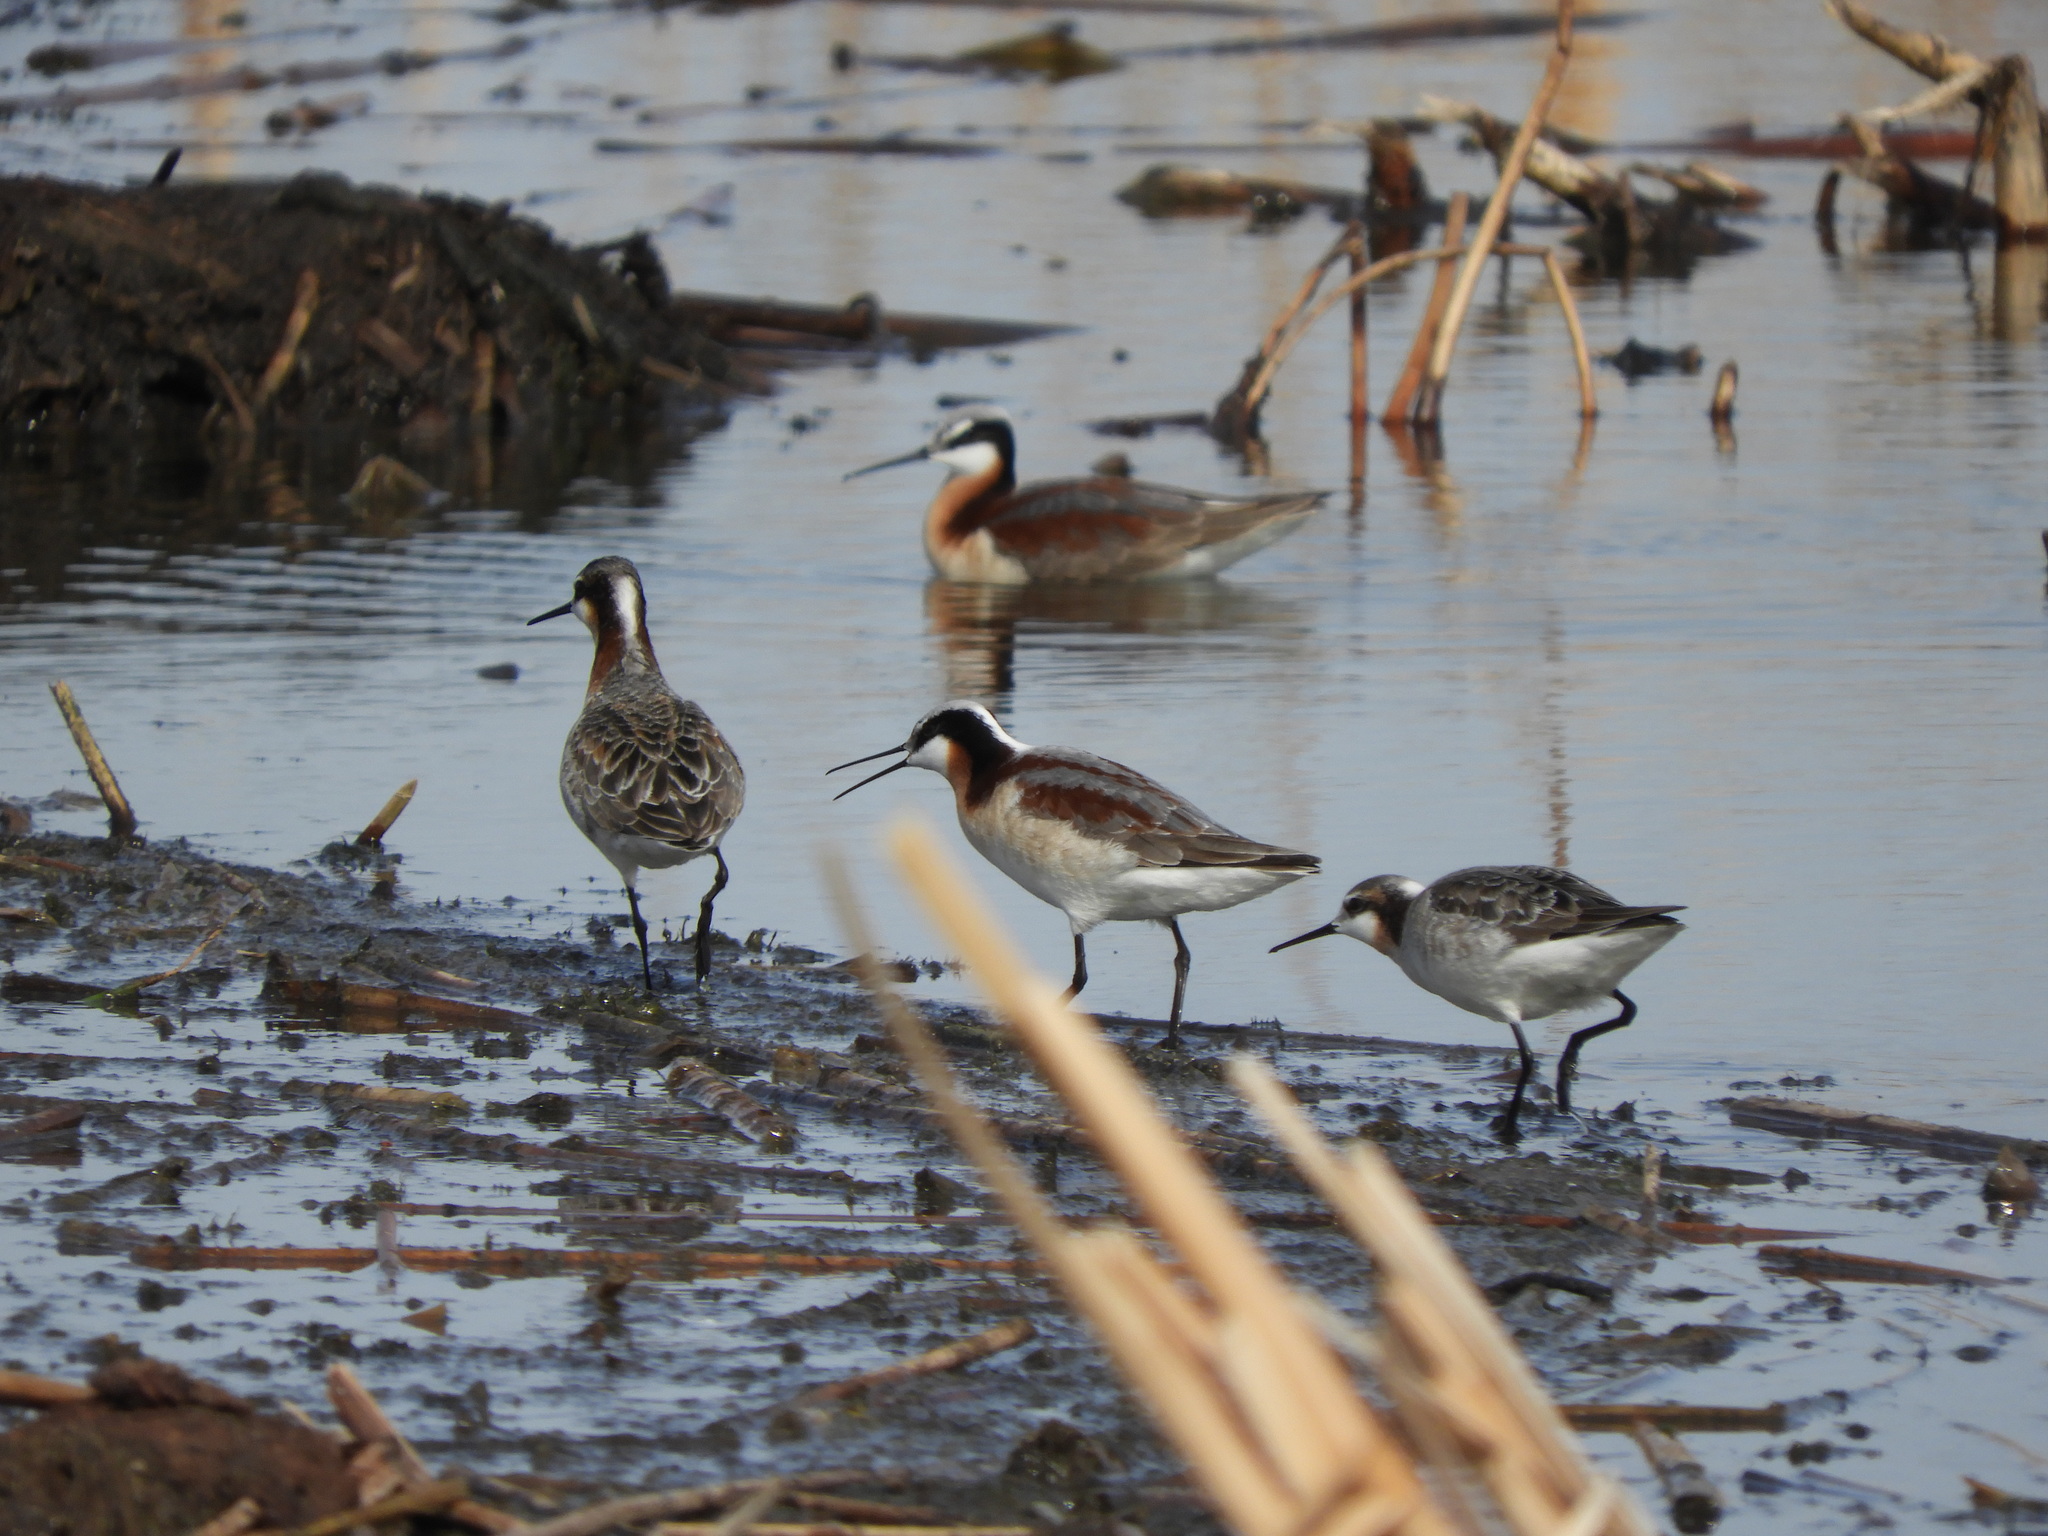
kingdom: Animalia
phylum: Chordata
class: Aves
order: Charadriiformes
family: Scolopacidae
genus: Phalaropus
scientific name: Phalaropus tricolor
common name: Wilson's phalarope
